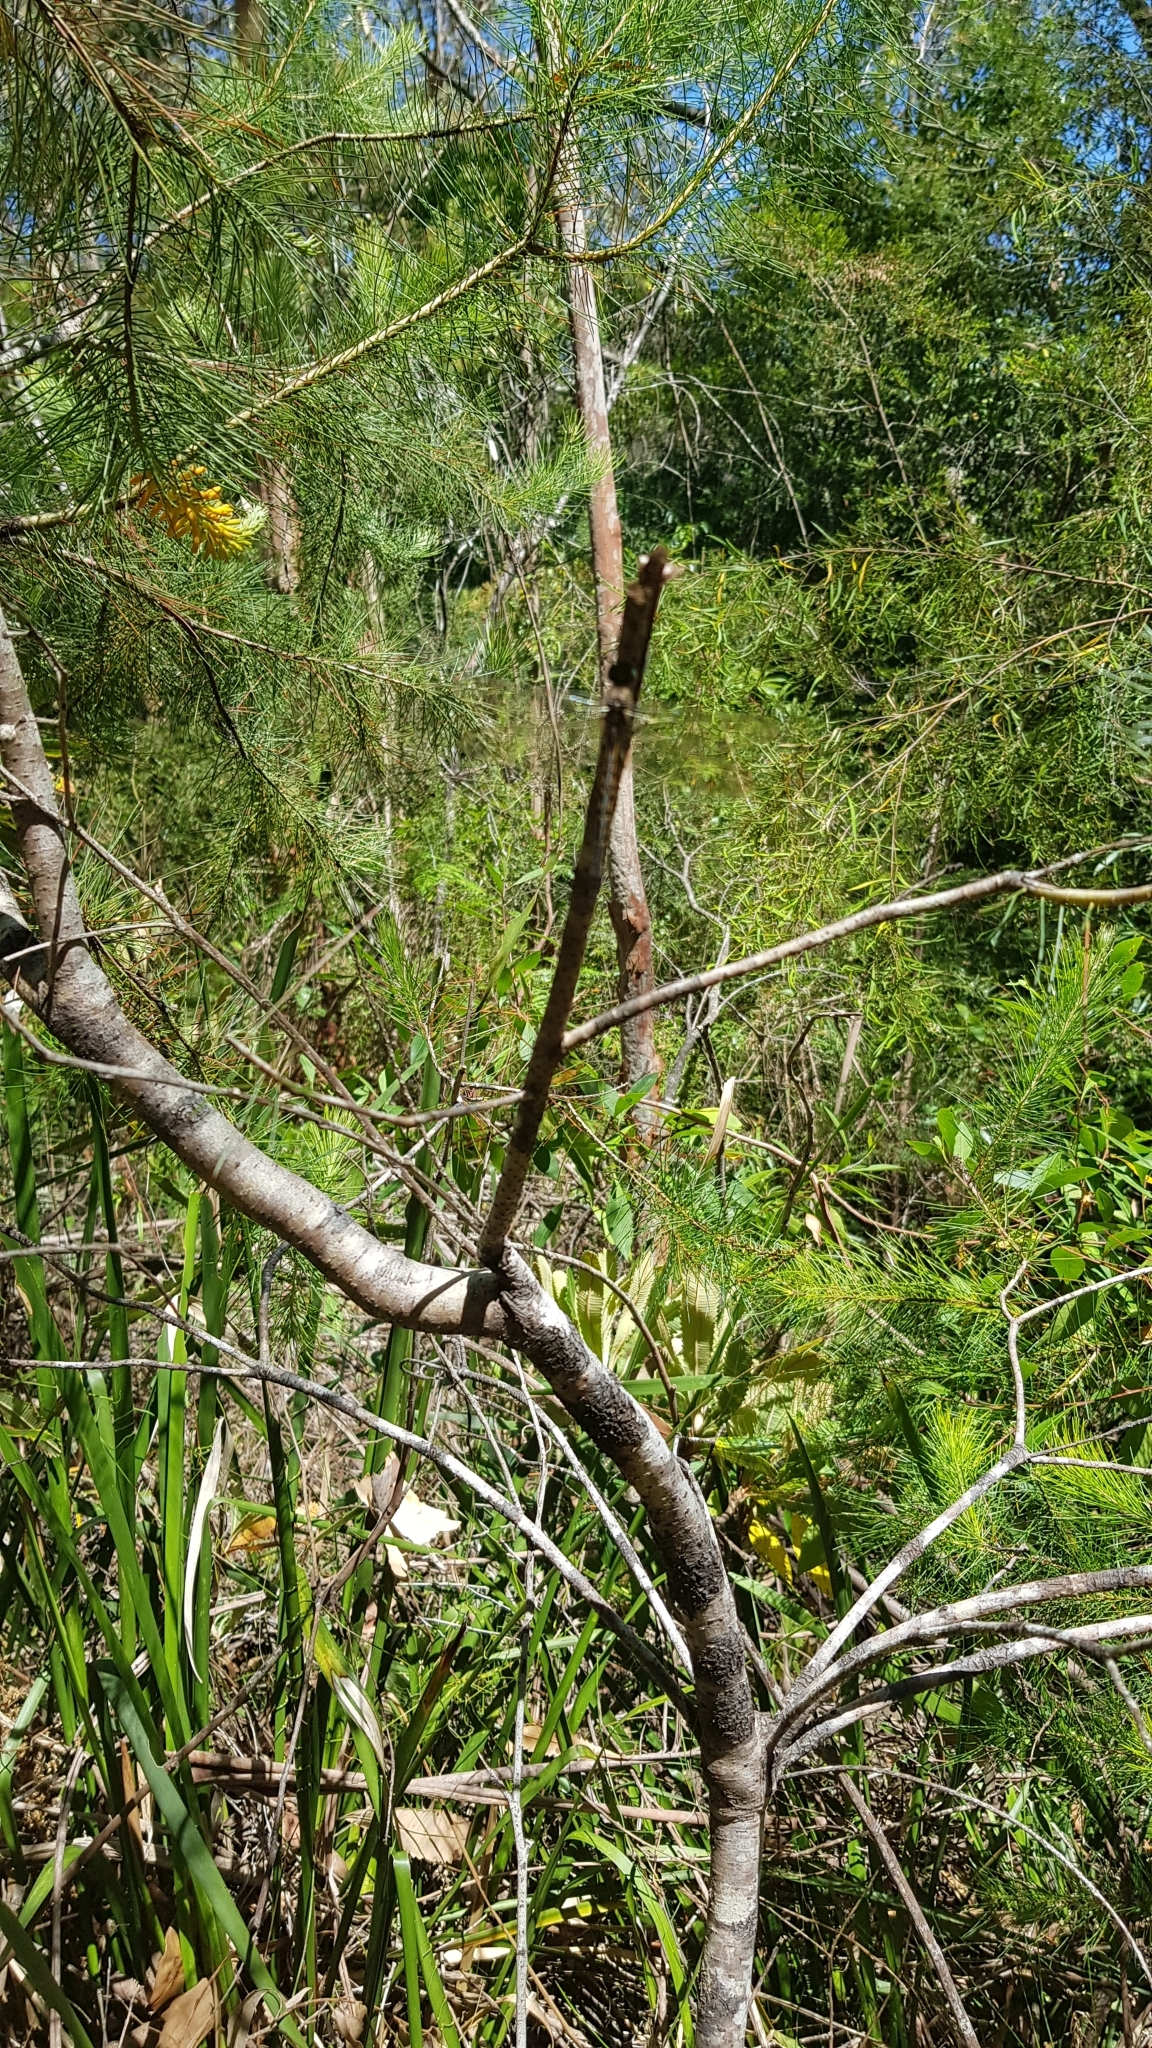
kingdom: Animalia
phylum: Arthropoda
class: Insecta
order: Odonata
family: Corduliidae
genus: Hemicordulia
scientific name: Hemicordulia australiae
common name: Sentry dragonfly
